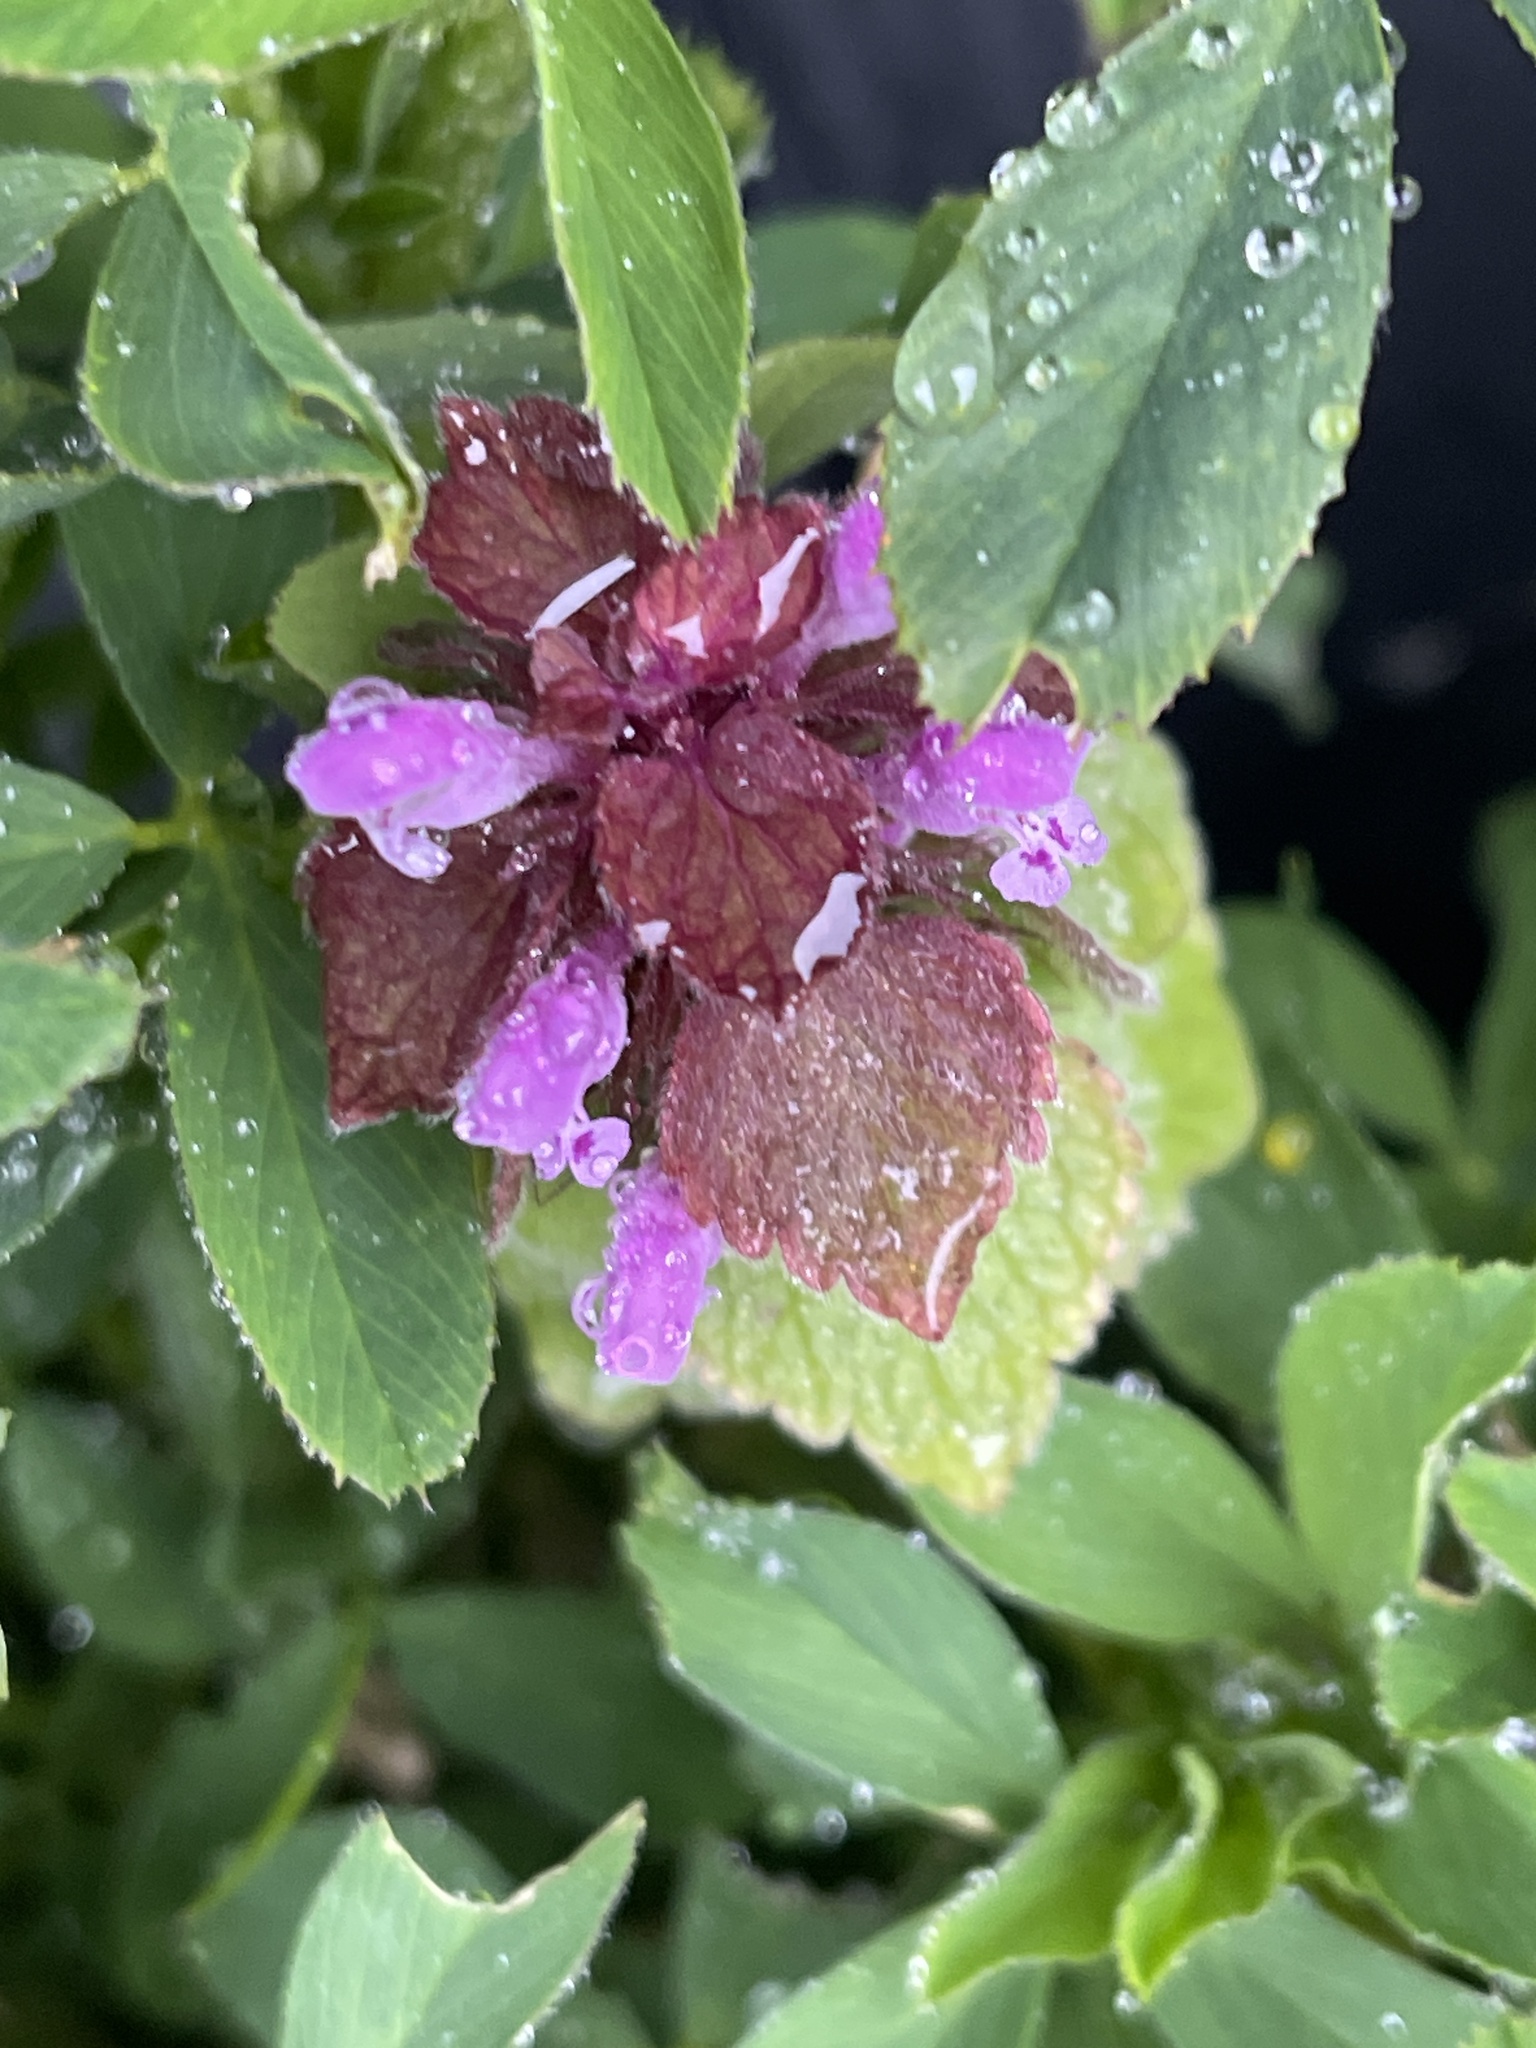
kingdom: Plantae
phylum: Tracheophyta
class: Magnoliopsida
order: Lamiales
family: Lamiaceae
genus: Lamium
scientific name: Lamium purpureum
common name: Red dead-nettle
